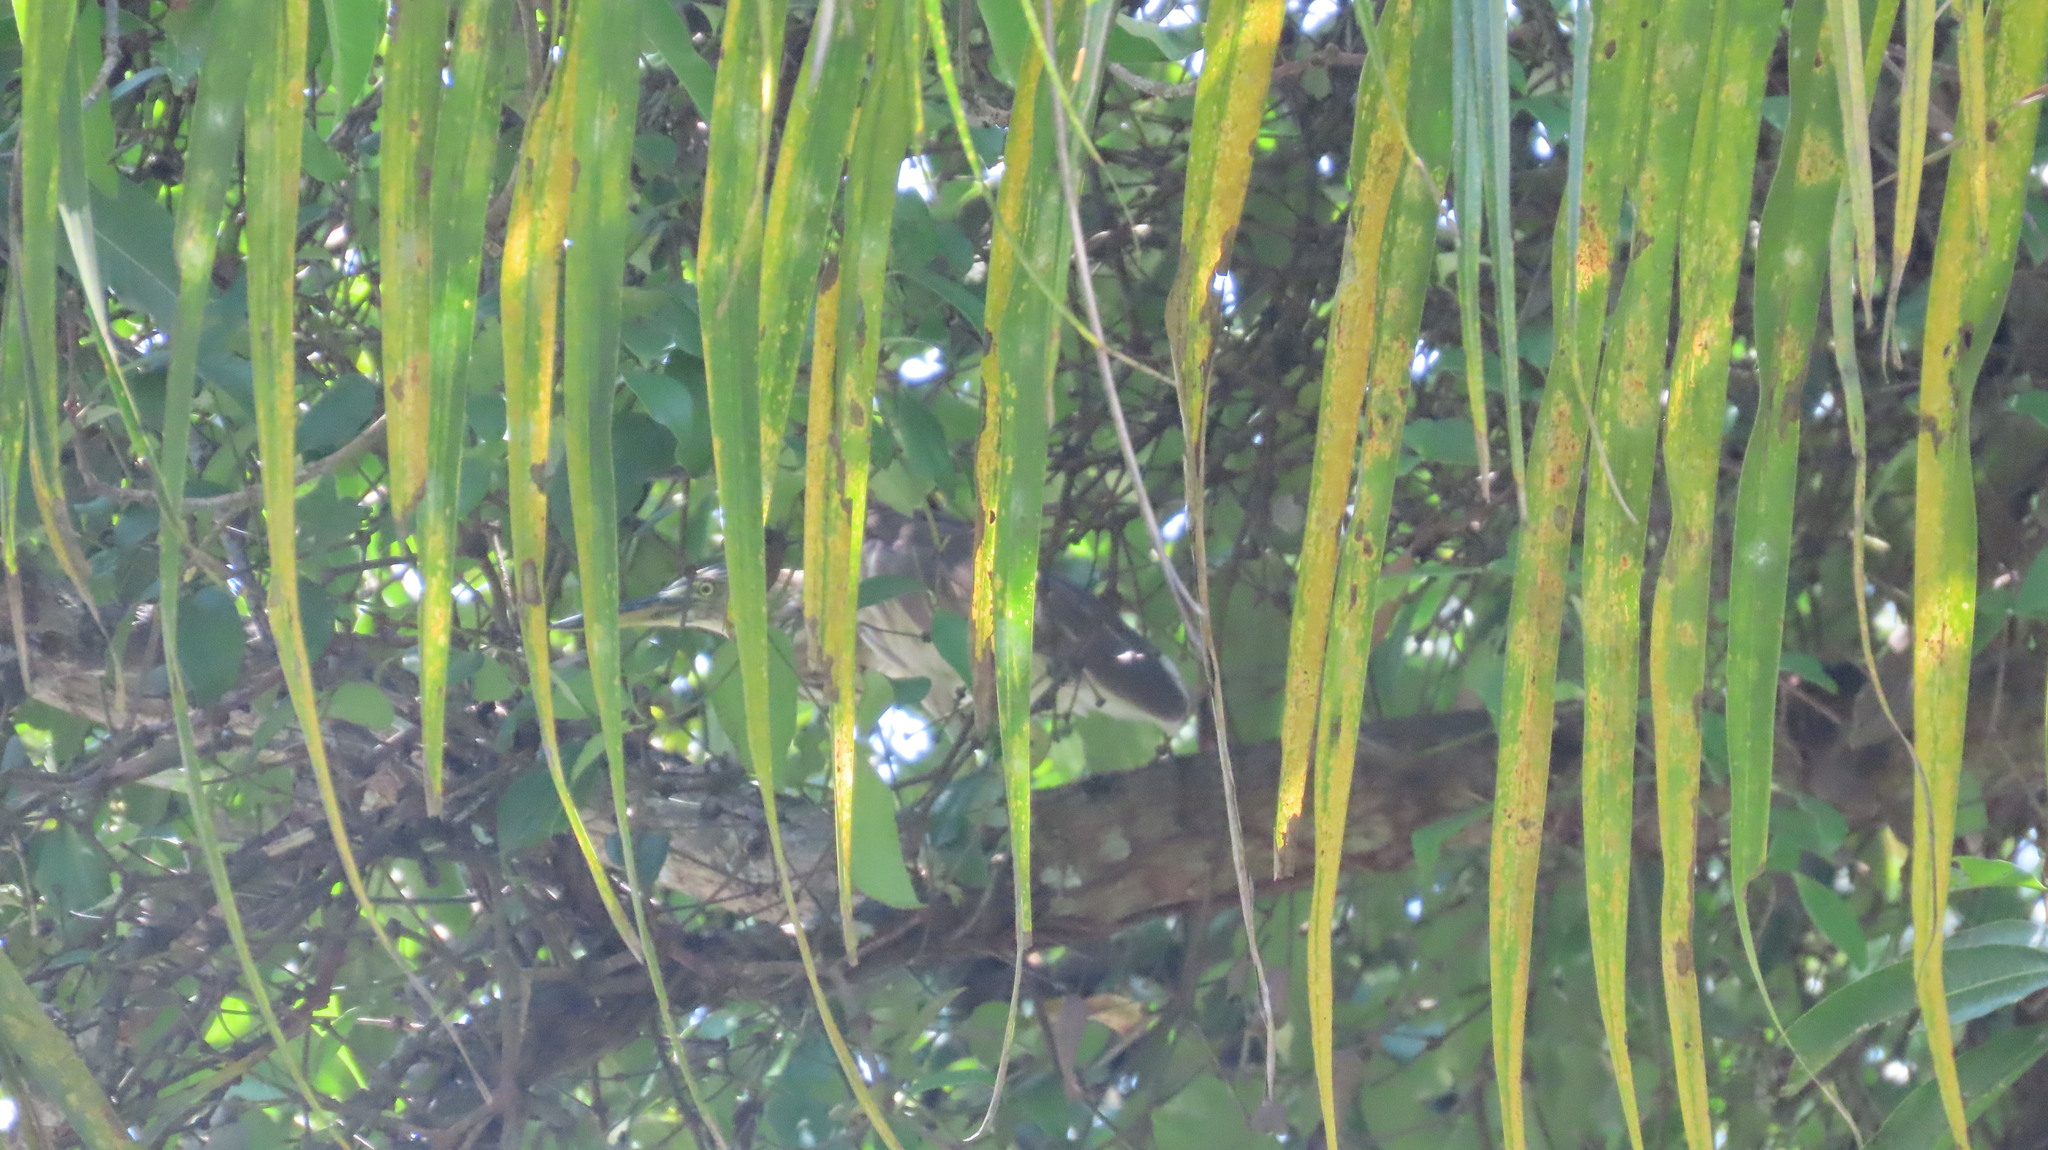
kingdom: Animalia
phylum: Chordata
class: Aves
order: Pelecaniformes
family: Ardeidae
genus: Ardeola
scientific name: Ardeola grayii
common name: Indian pond heron
